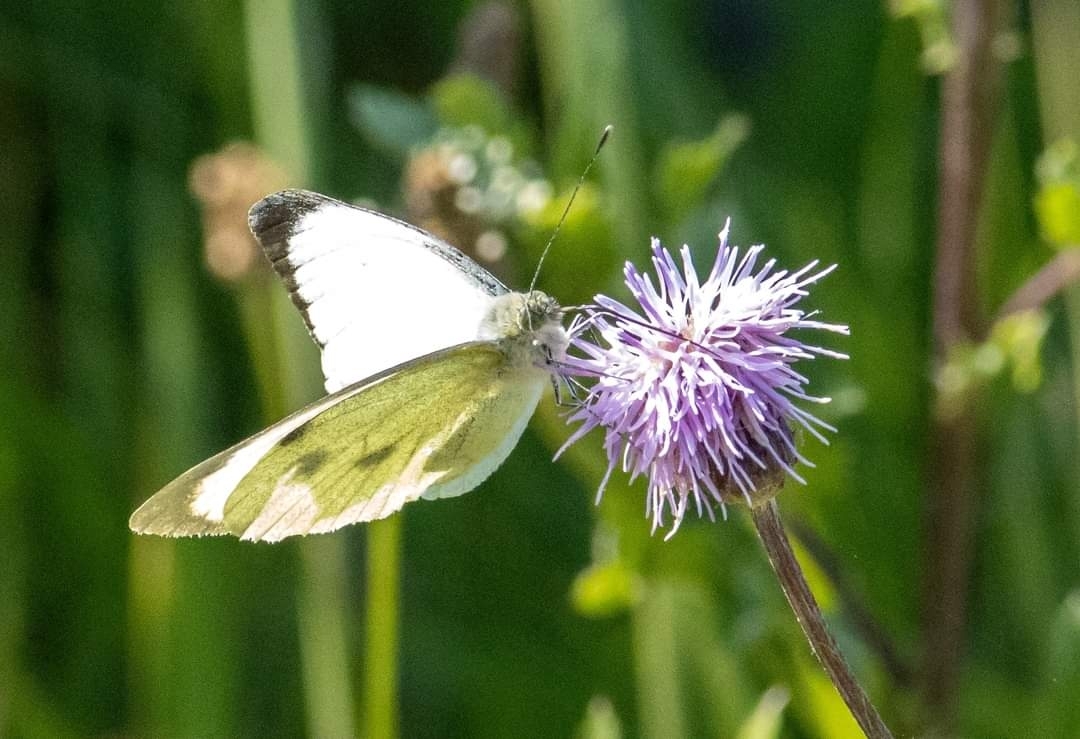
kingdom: Animalia
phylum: Arthropoda
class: Insecta
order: Lepidoptera
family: Pieridae
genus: Pieris
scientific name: Pieris brassicae
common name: Large white
